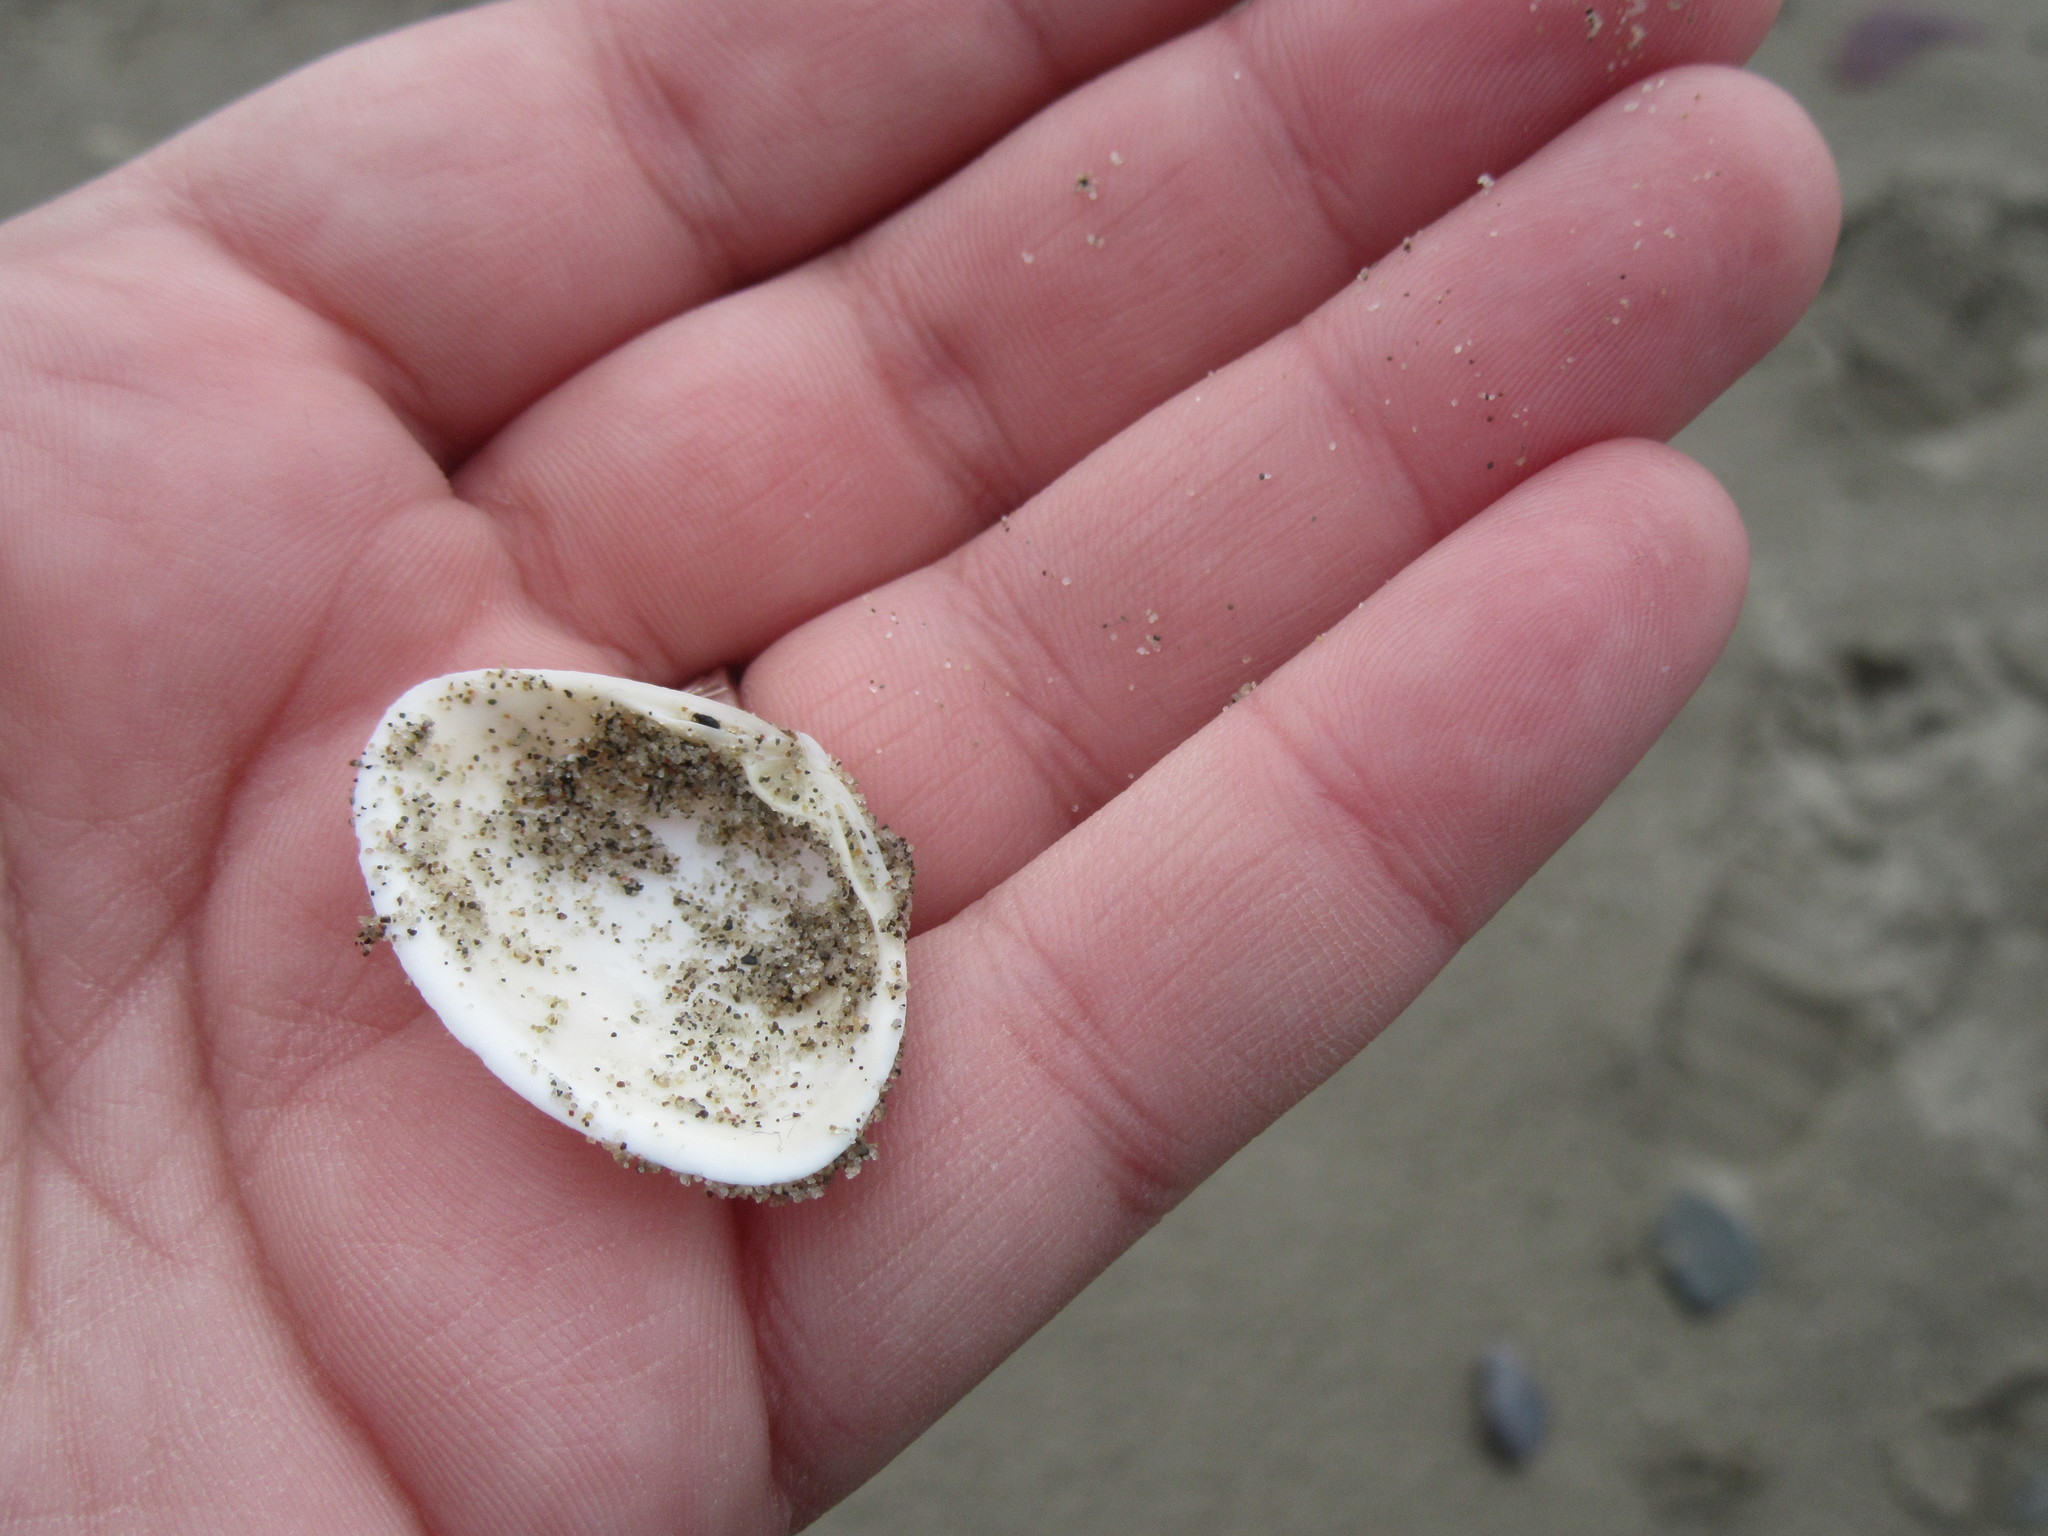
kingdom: Animalia
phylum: Mollusca
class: Bivalvia
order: Venerida
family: Mactridae
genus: Spisula
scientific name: Spisula solidissima
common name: Atlantic surf clam
